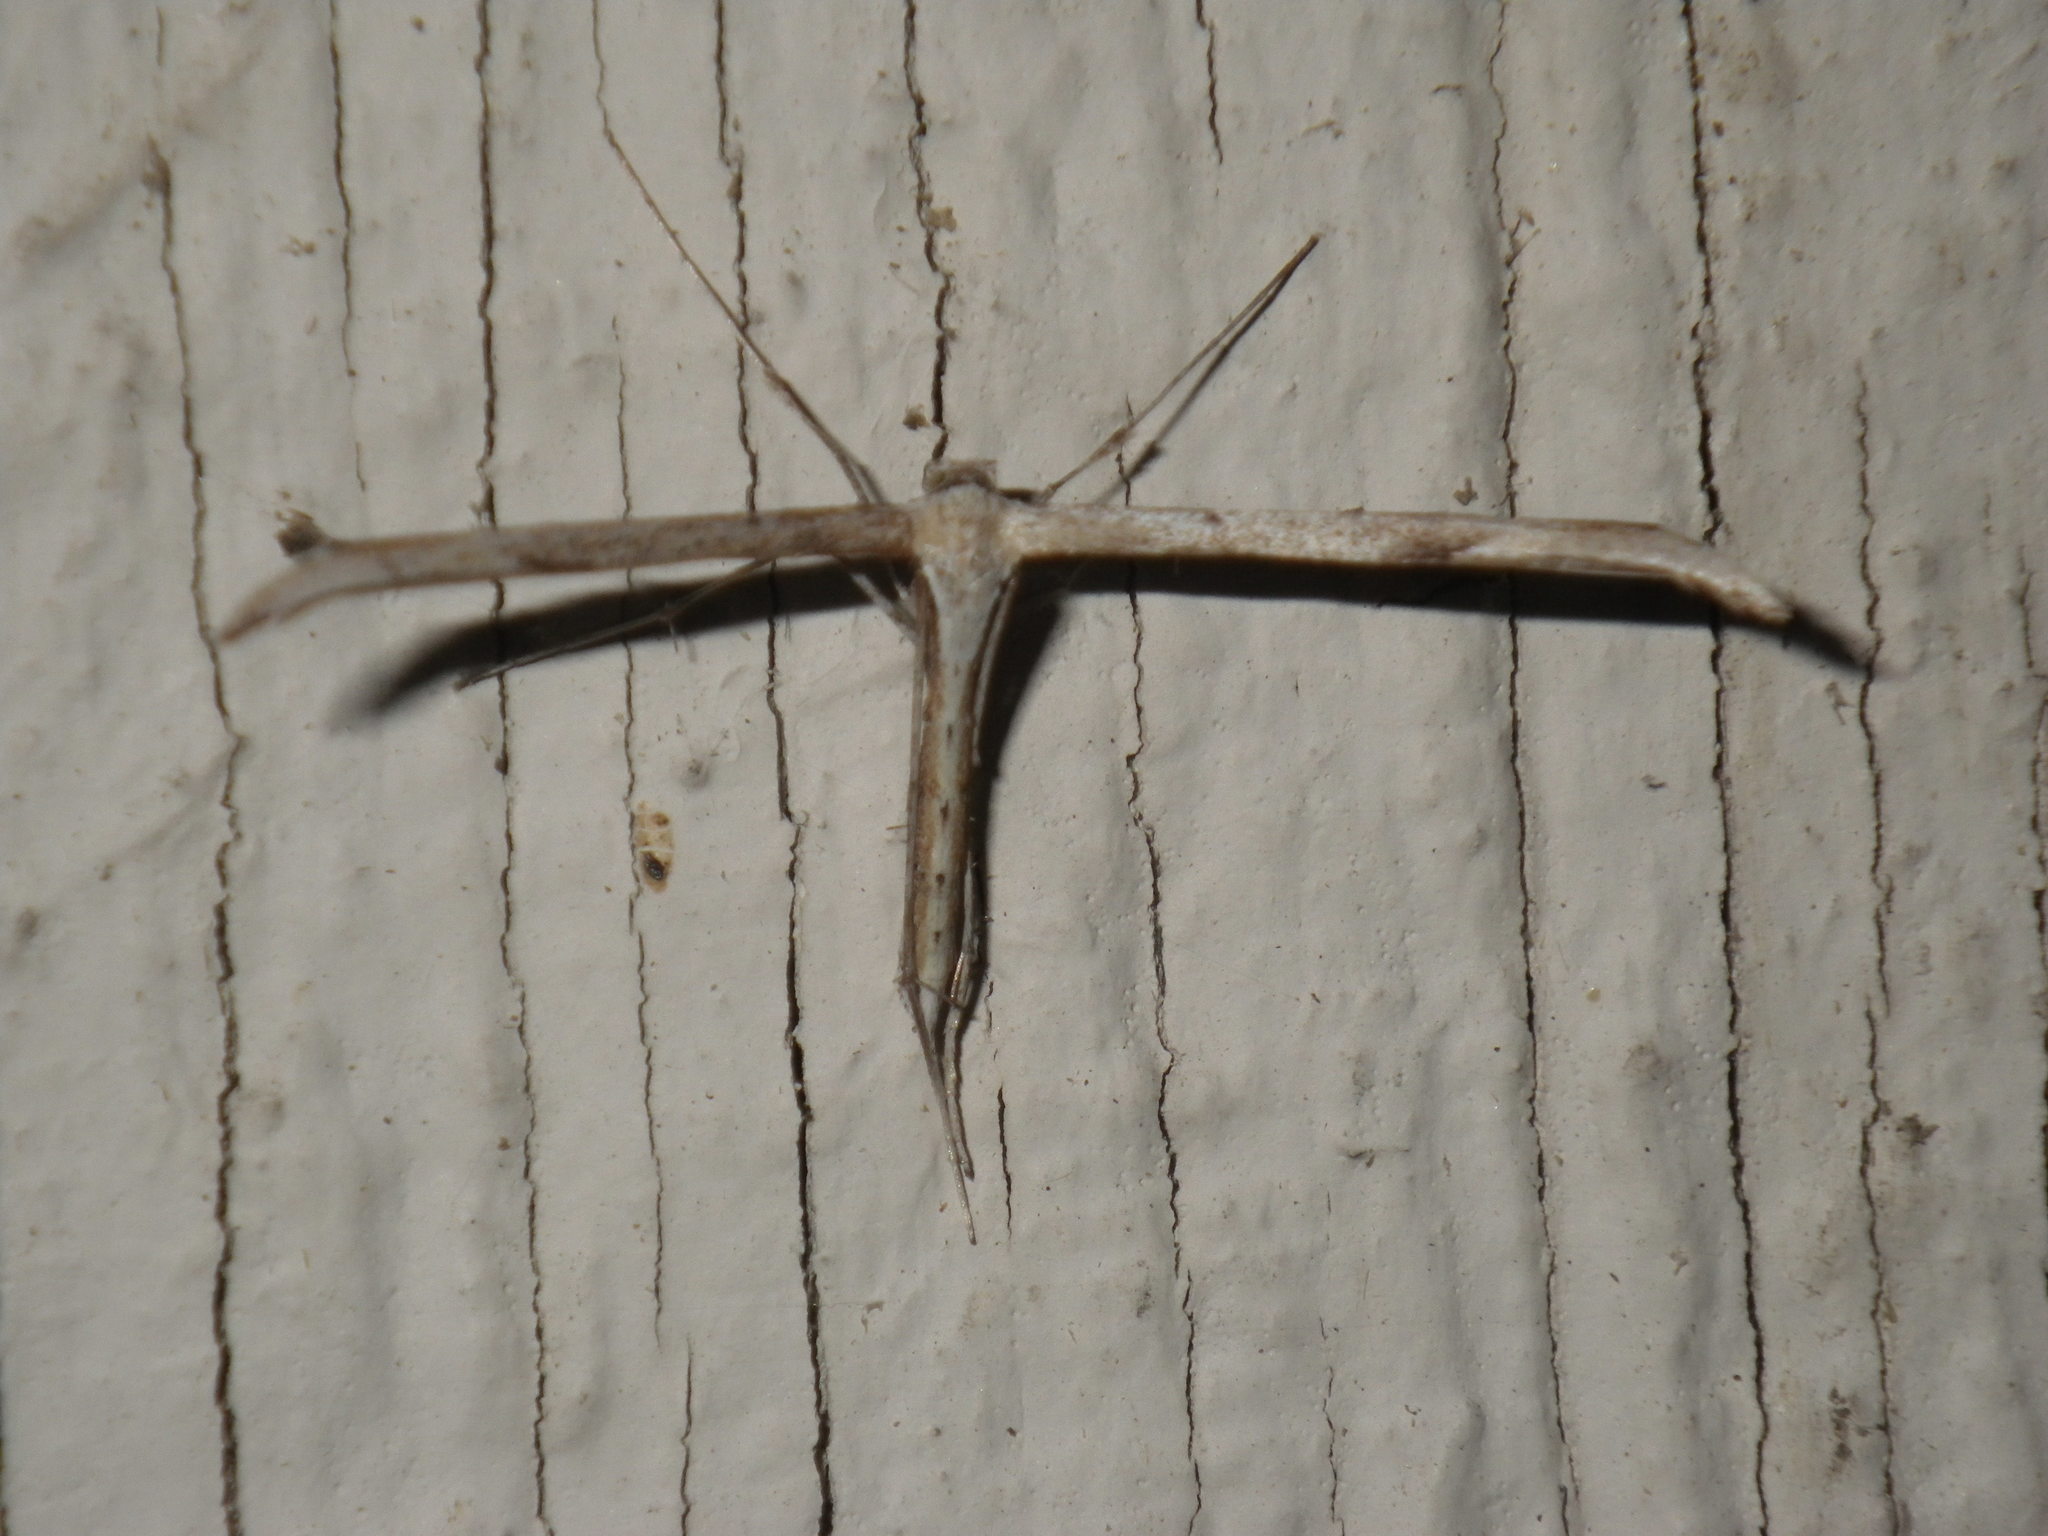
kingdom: Animalia
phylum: Arthropoda
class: Insecta
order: Lepidoptera
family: Pterophoridae
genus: Emmelina
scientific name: Emmelina monodactyla
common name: Common plume
